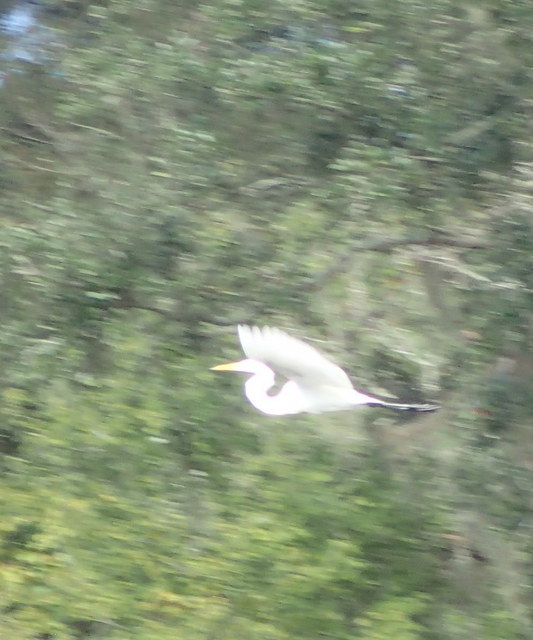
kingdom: Animalia
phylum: Chordata
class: Aves
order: Pelecaniformes
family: Ardeidae
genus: Ardea
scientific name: Ardea alba
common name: Great egret
